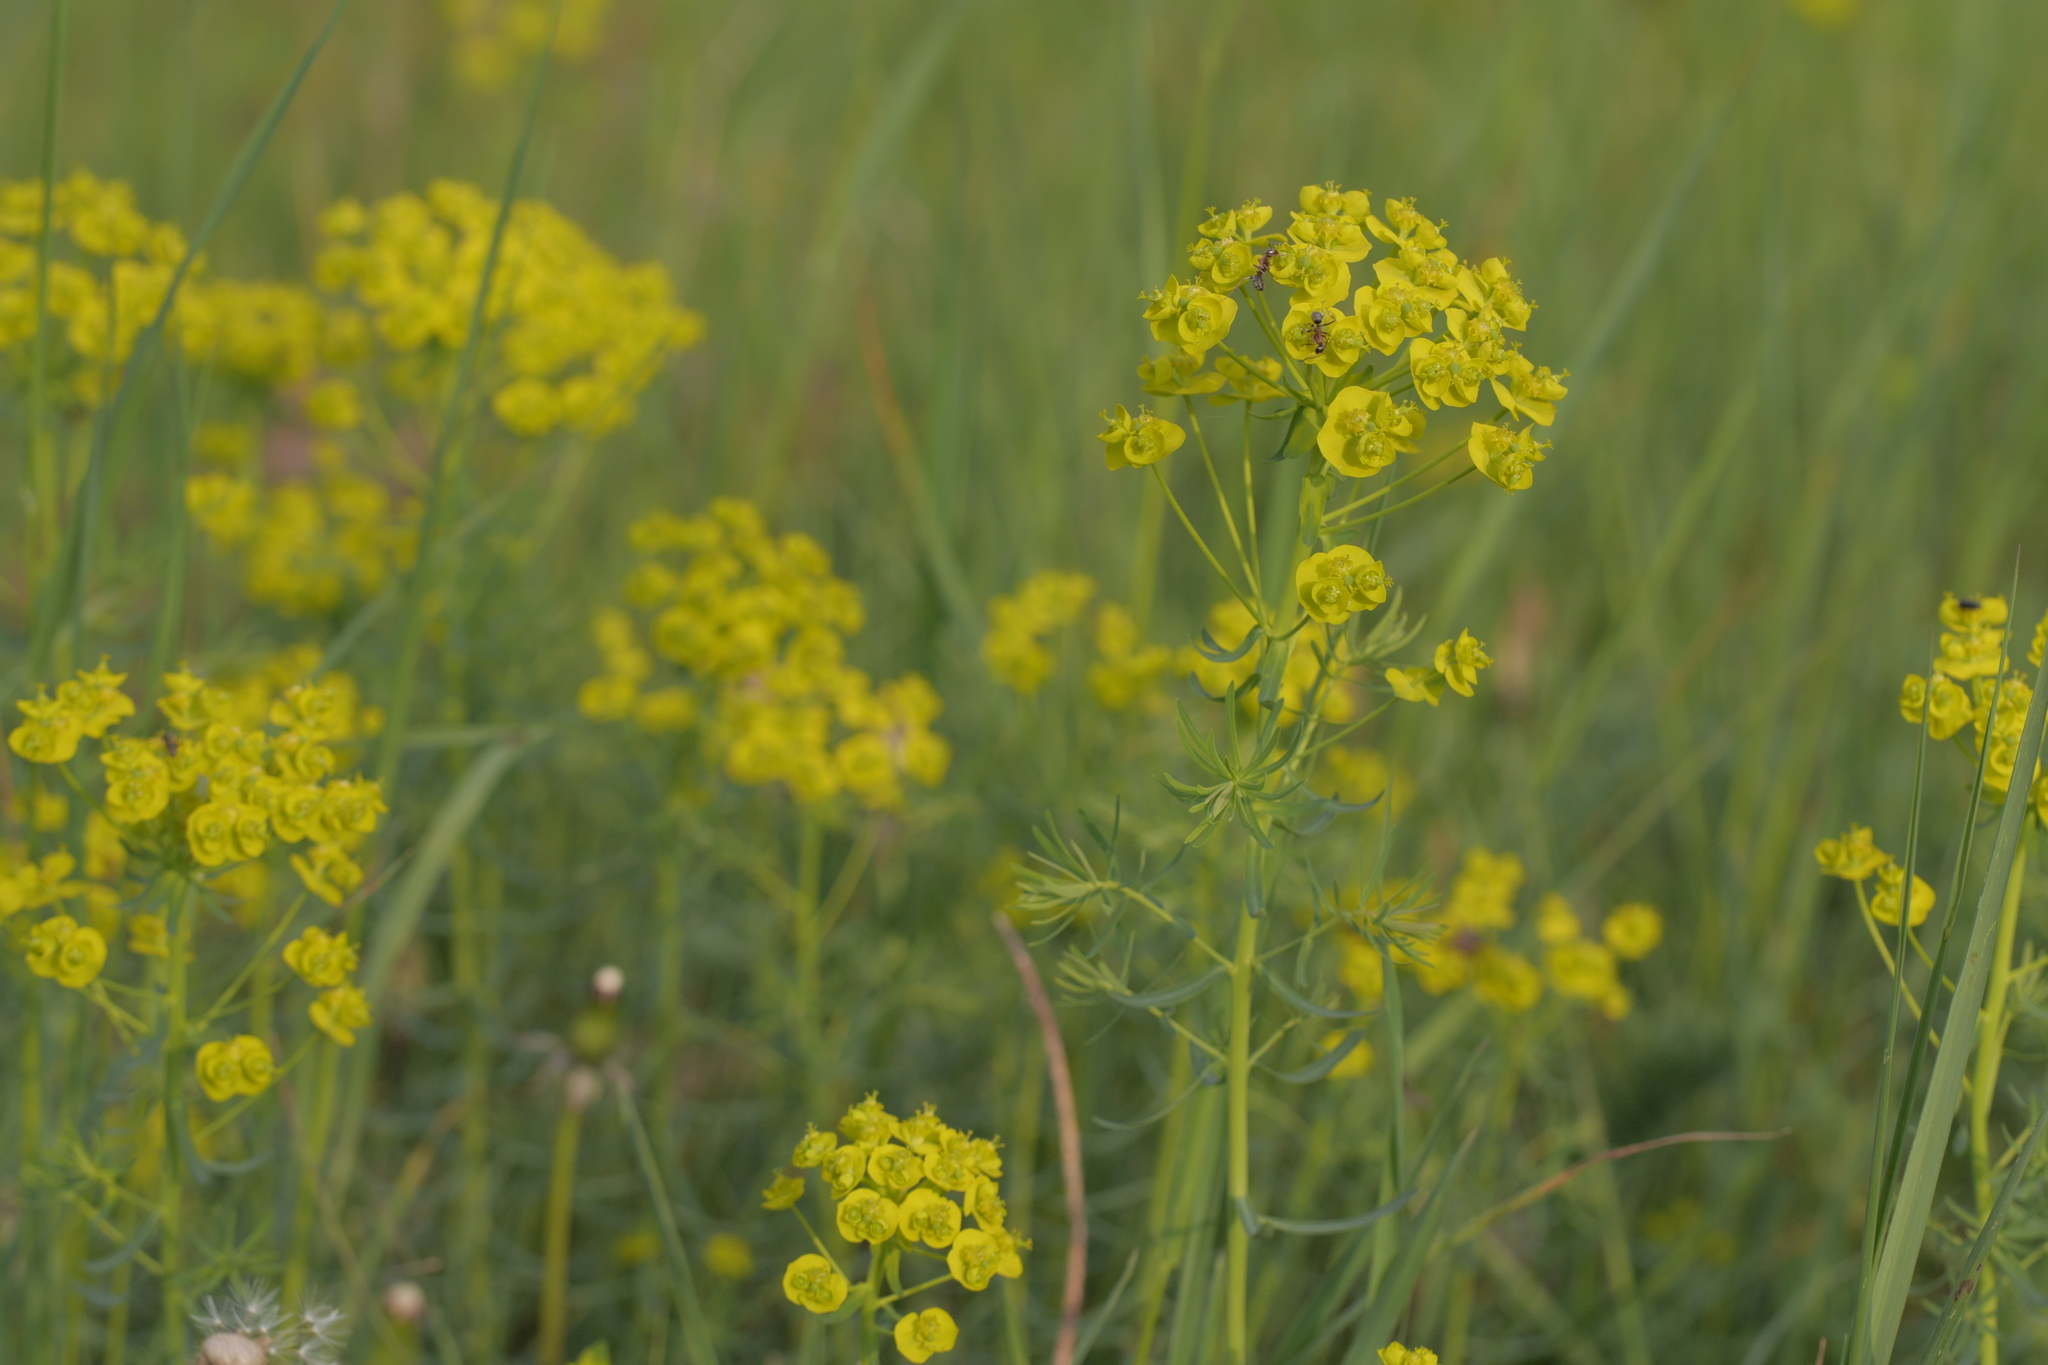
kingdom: Plantae
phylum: Tracheophyta
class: Magnoliopsida
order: Malpighiales
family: Euphorbiaceae
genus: Euphorbia
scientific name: Euphorbia cyparissias
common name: Cypress spurge
